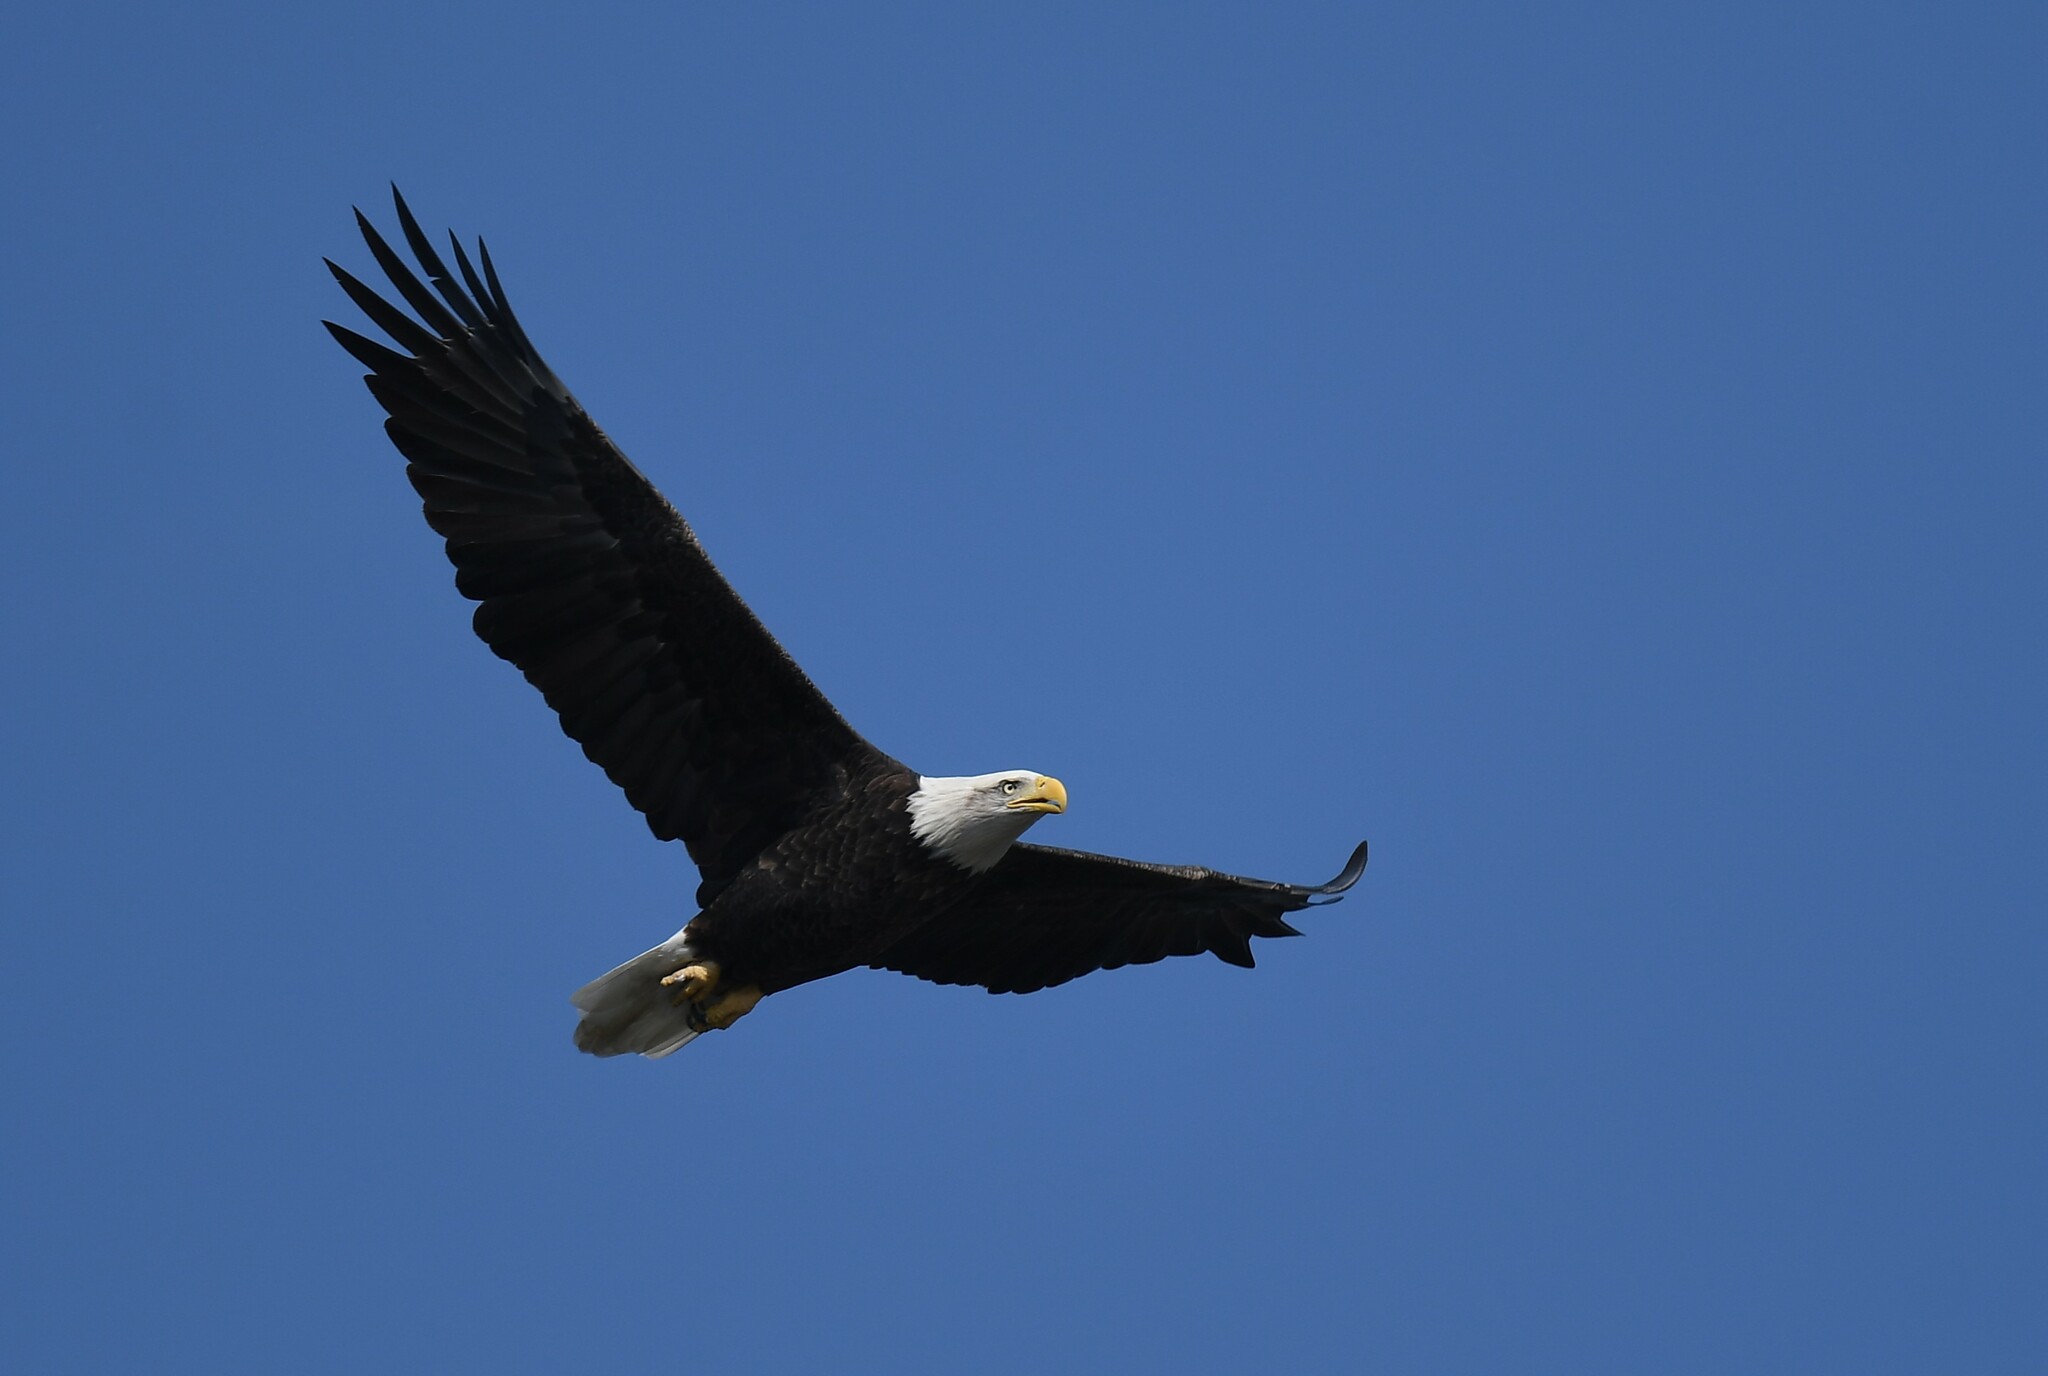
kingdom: Animalia
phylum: Chordata
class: Aves
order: Accipitriformes
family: Accipitridae
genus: Haliaeetus
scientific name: Haliaeetus leucocephalus
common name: Bald eagle
